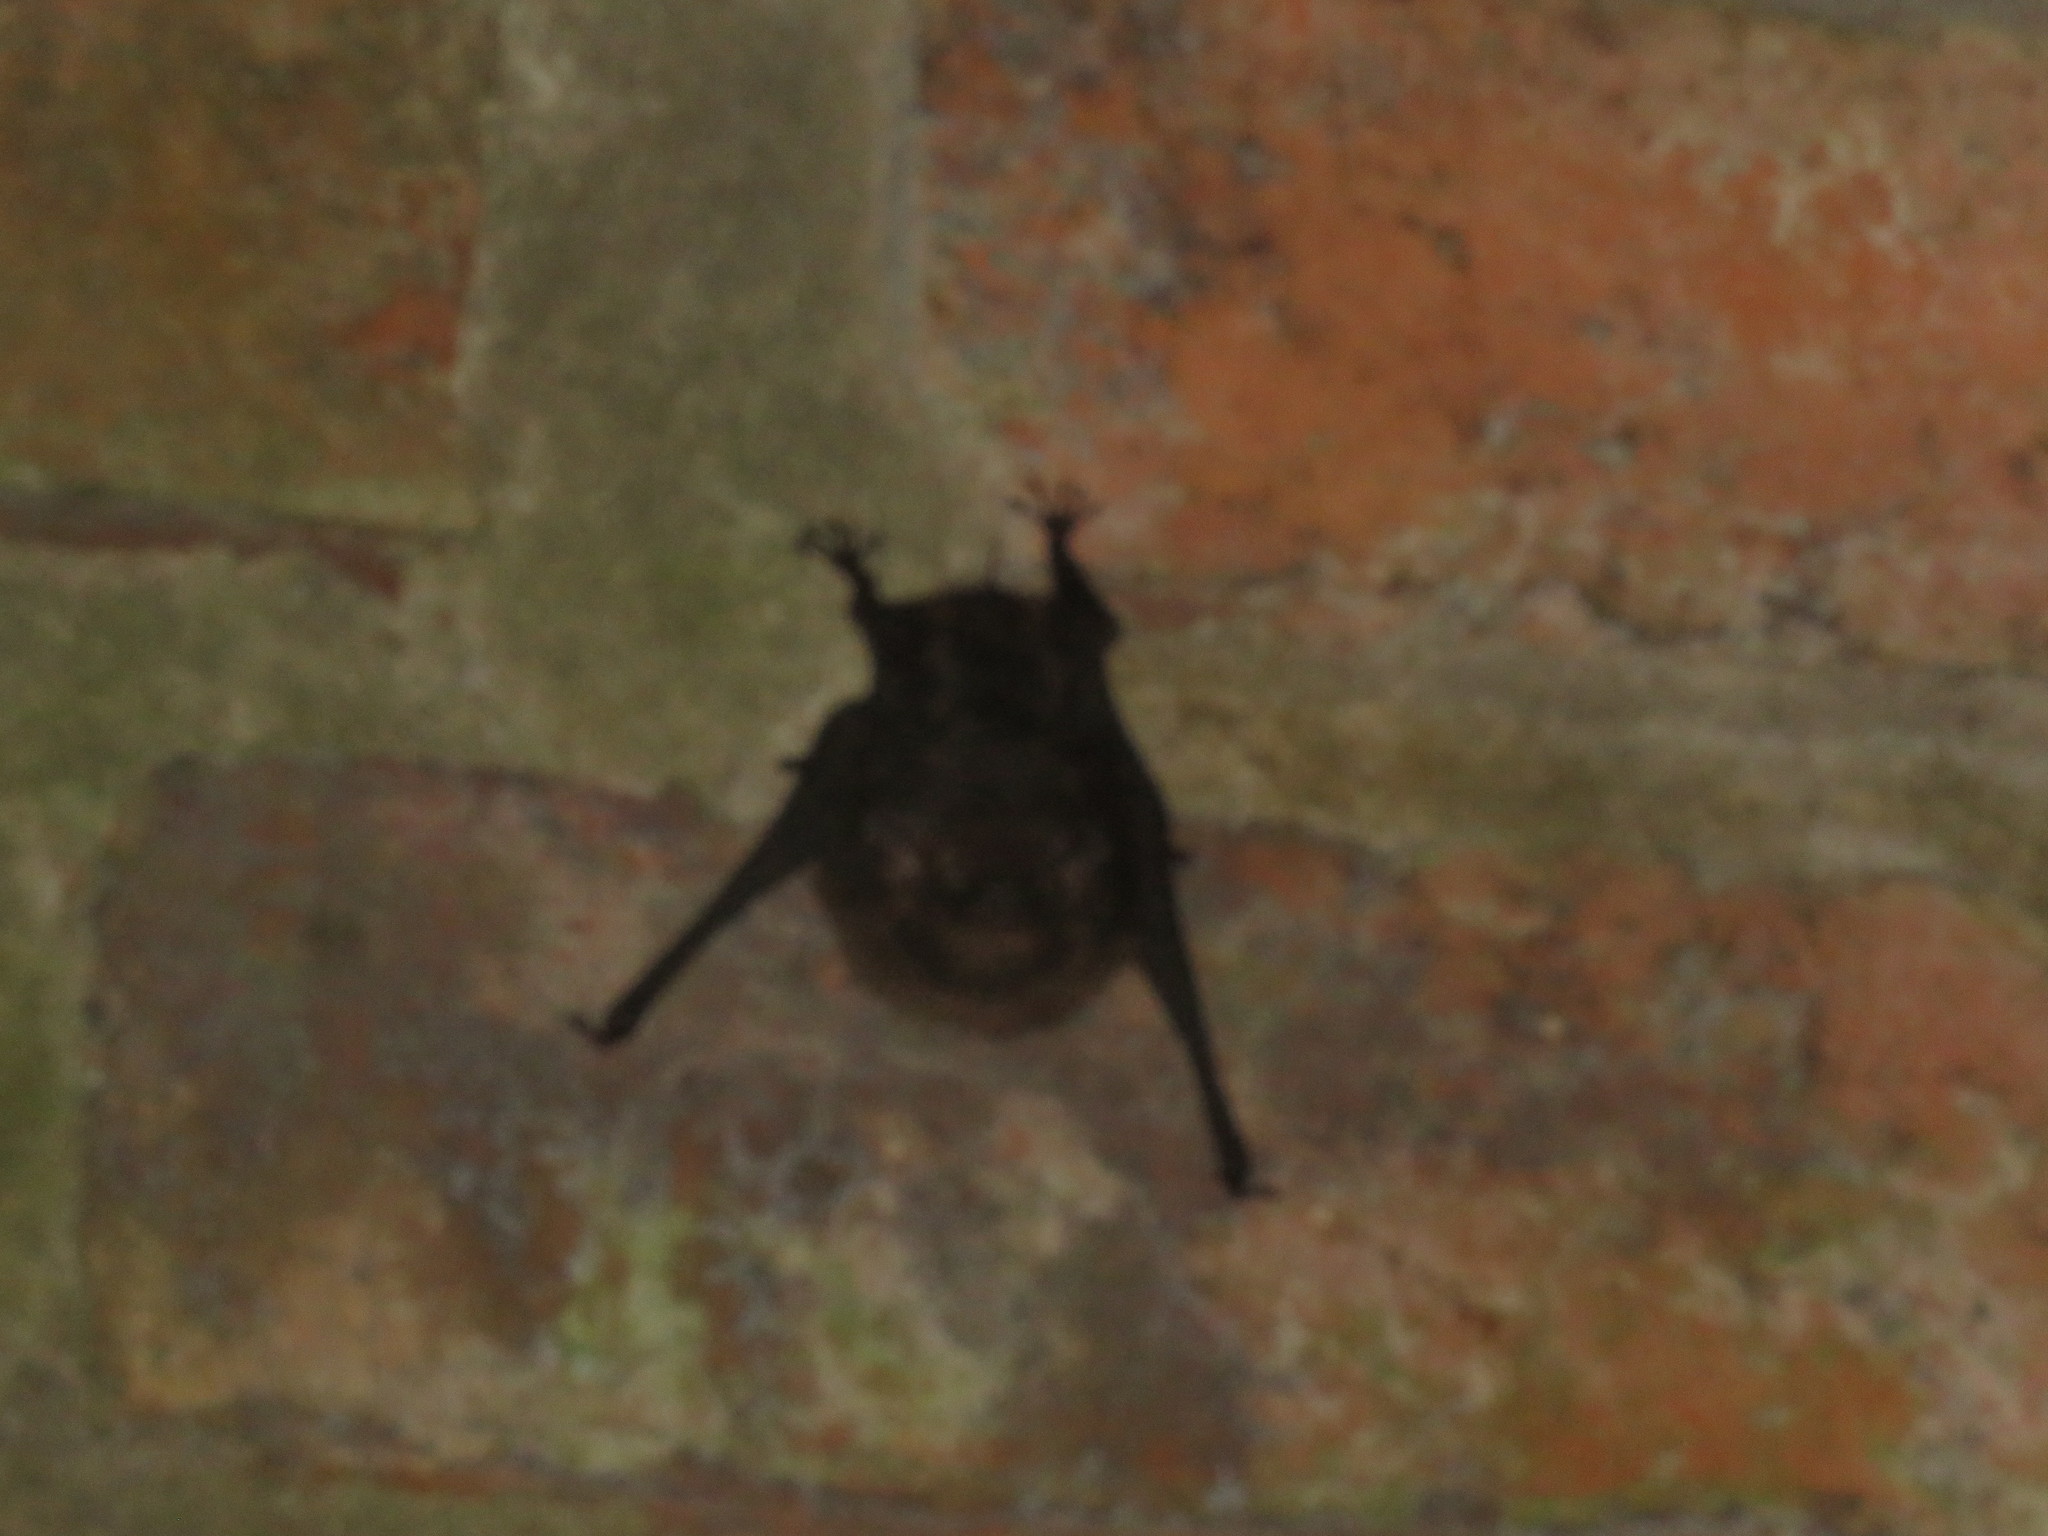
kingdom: Animalia
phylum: Chordata
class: Mammalia
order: Chiroptera
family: Emballonuridae
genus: Saccopteryx
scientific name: Saccopteryx bilineata
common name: Greater sac-winged bat
